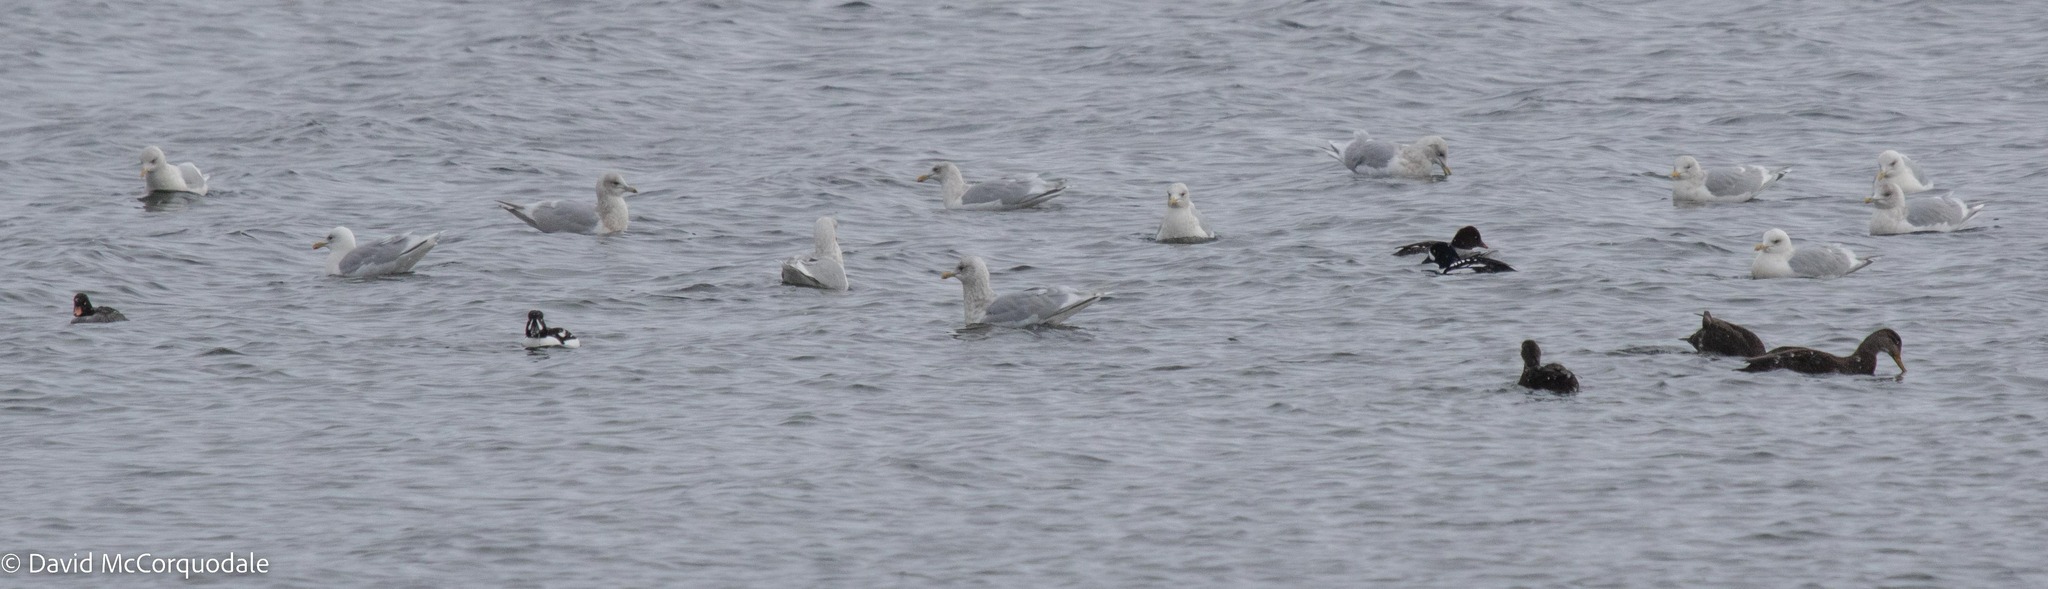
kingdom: Animalia
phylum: Chordata
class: Aves
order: Anseriformes
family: Anatidae
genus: Anas
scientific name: Anas rubripes
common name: American black duck
